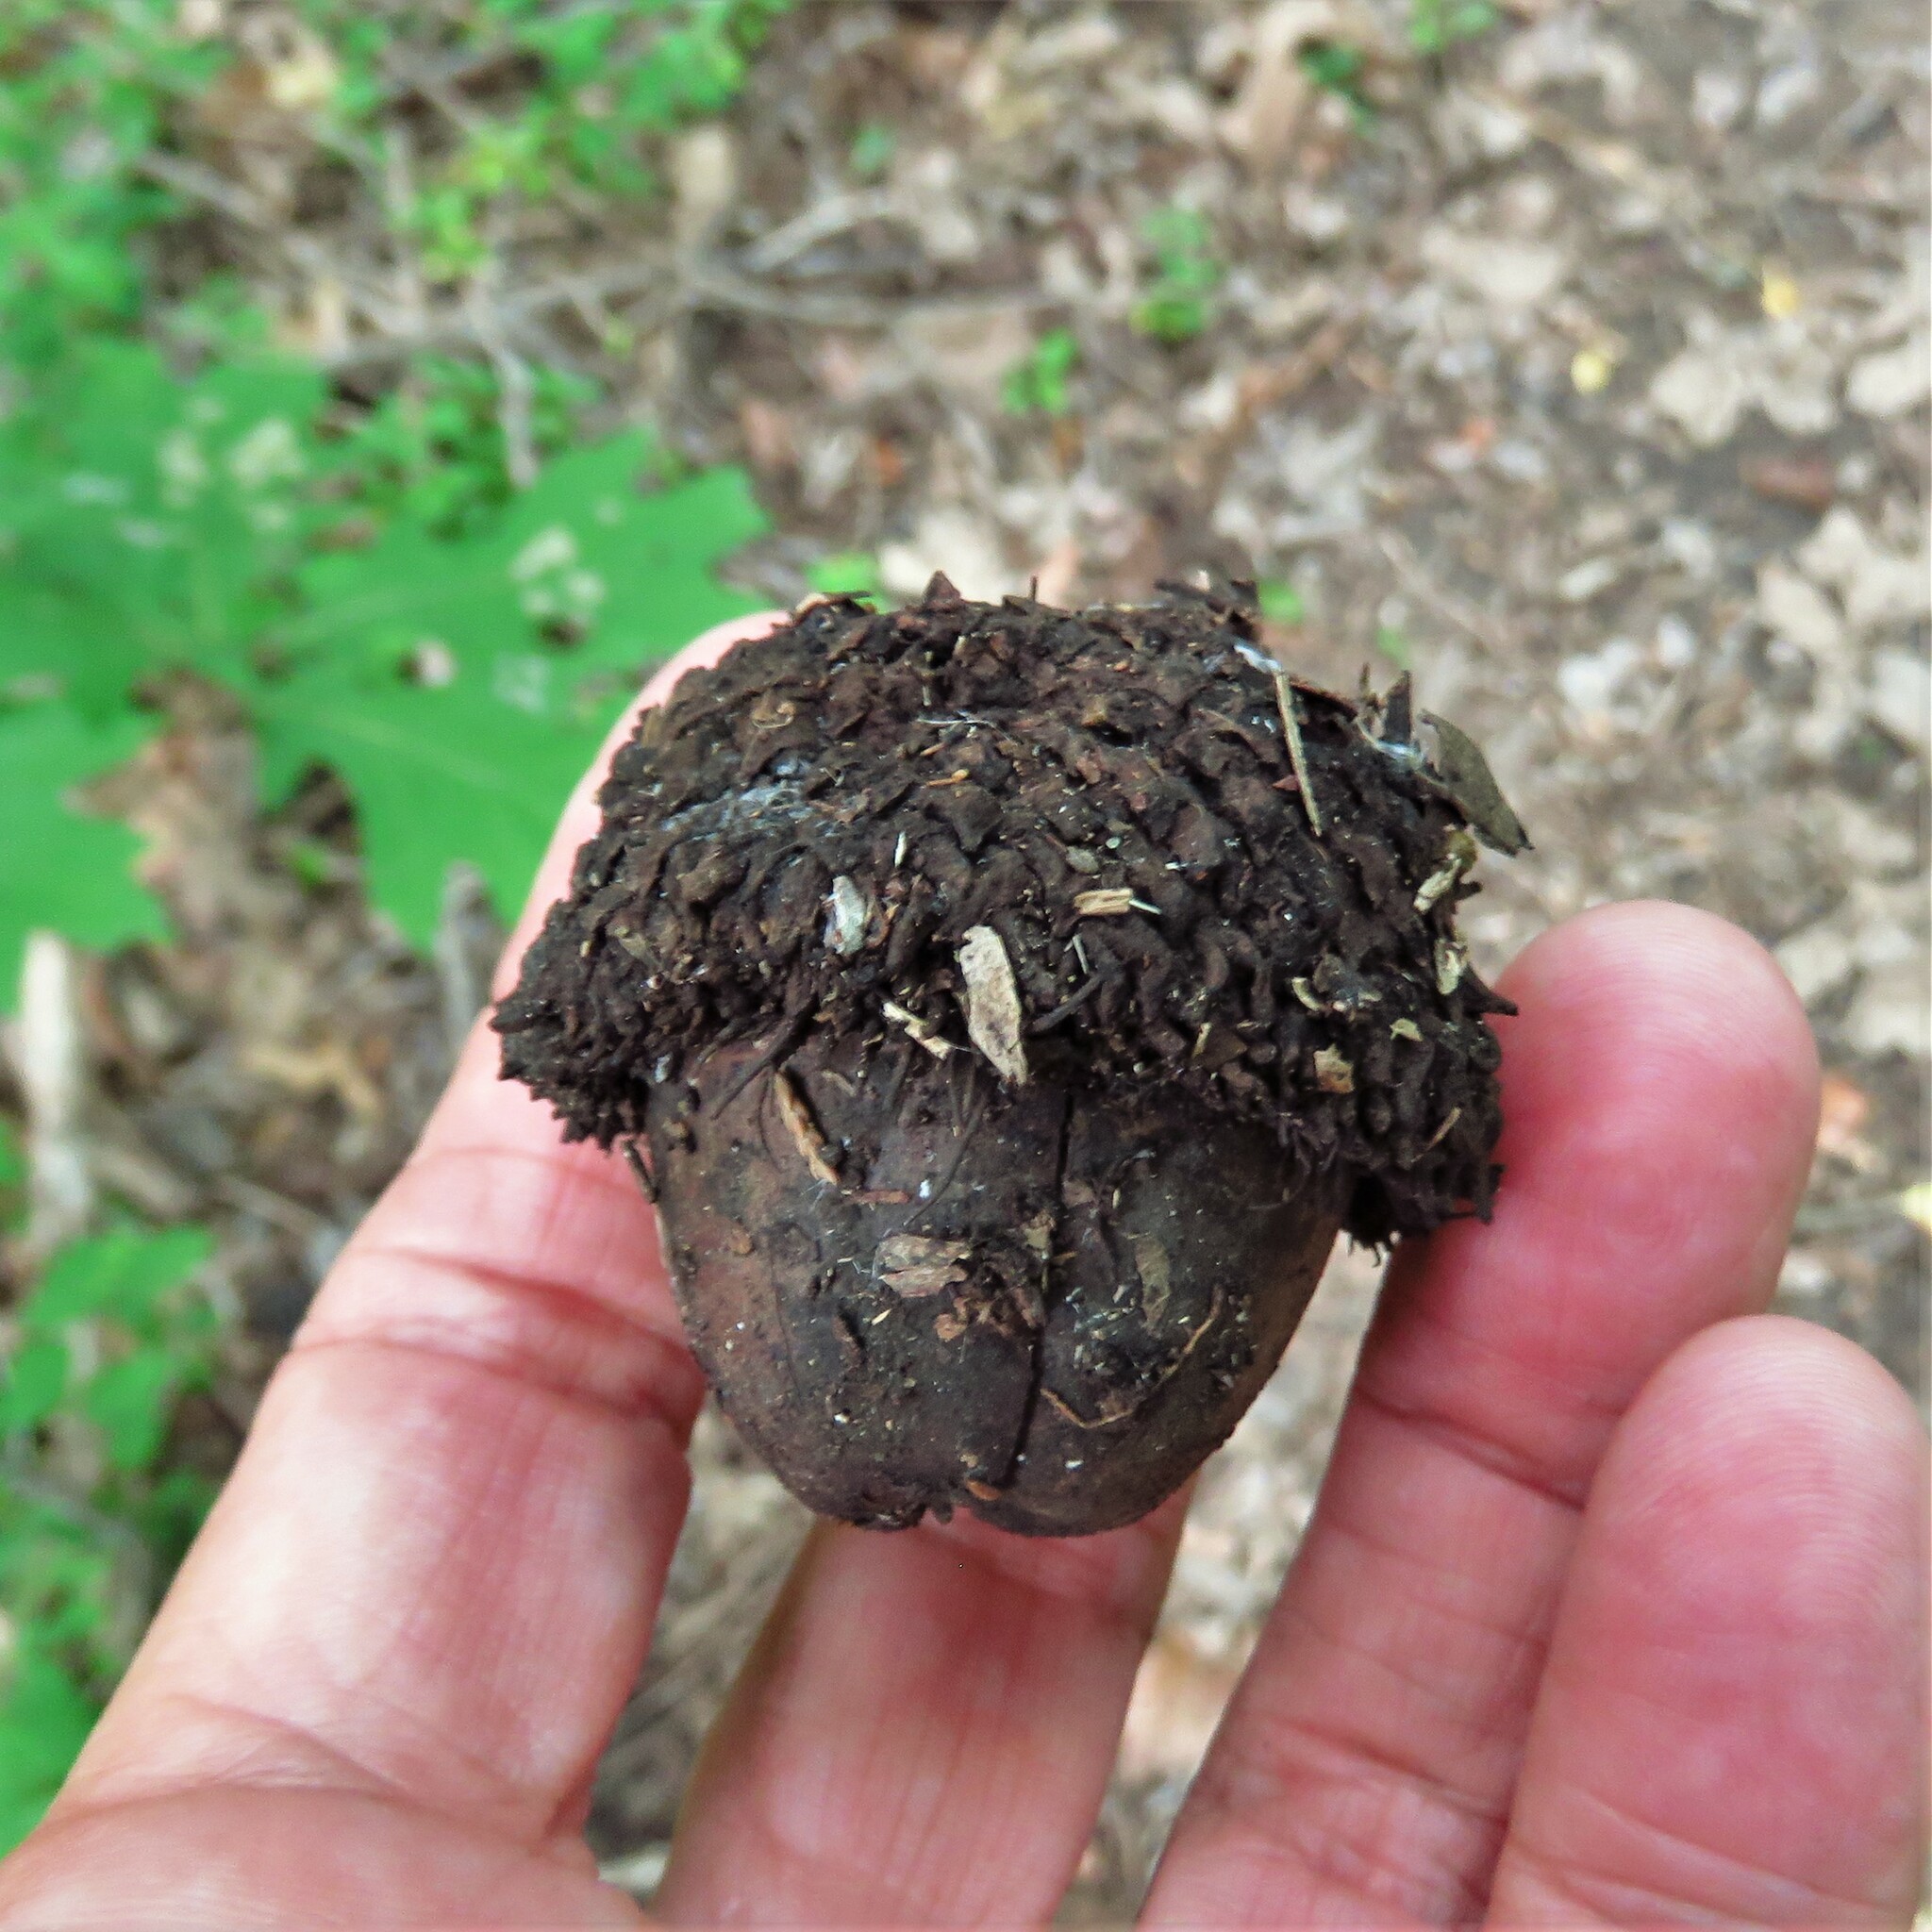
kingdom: Plantae
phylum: Tracheophyta
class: Magnoliopsida
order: Fagales
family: Fagaceae
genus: Quercus
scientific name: Quercus macrocarpa
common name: Bur oak
